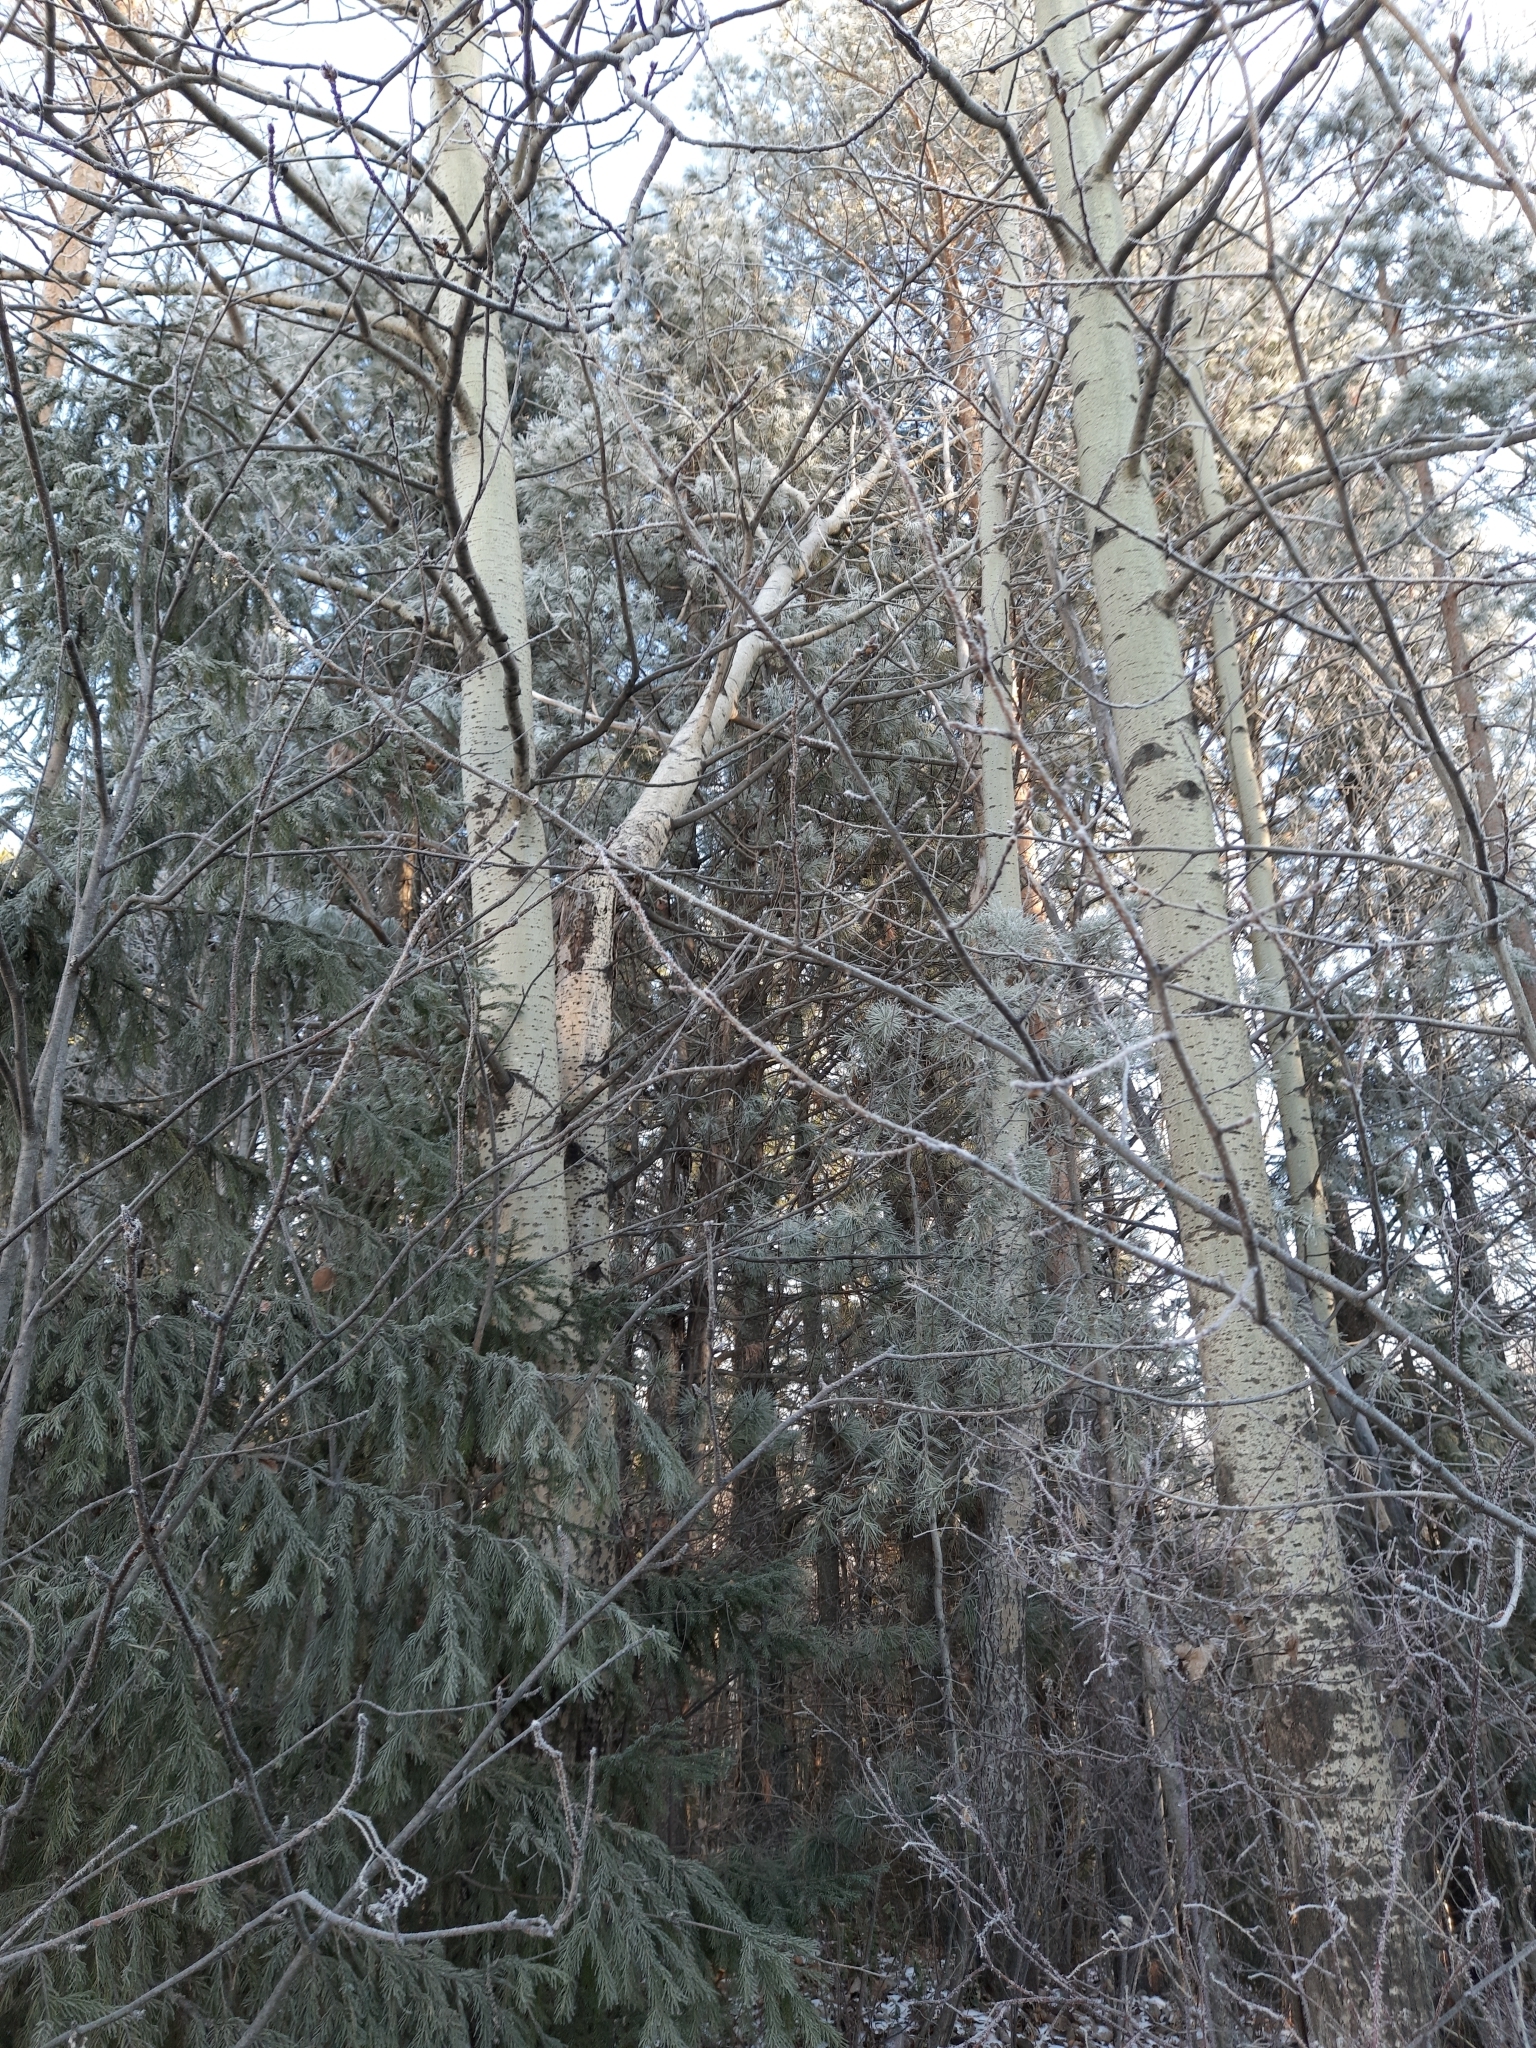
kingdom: Plantae
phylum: Tracheophyta
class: Magnoliopsida
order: Malpighiales
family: Salicaceae
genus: Populus
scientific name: Populus tremula
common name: European aspen
